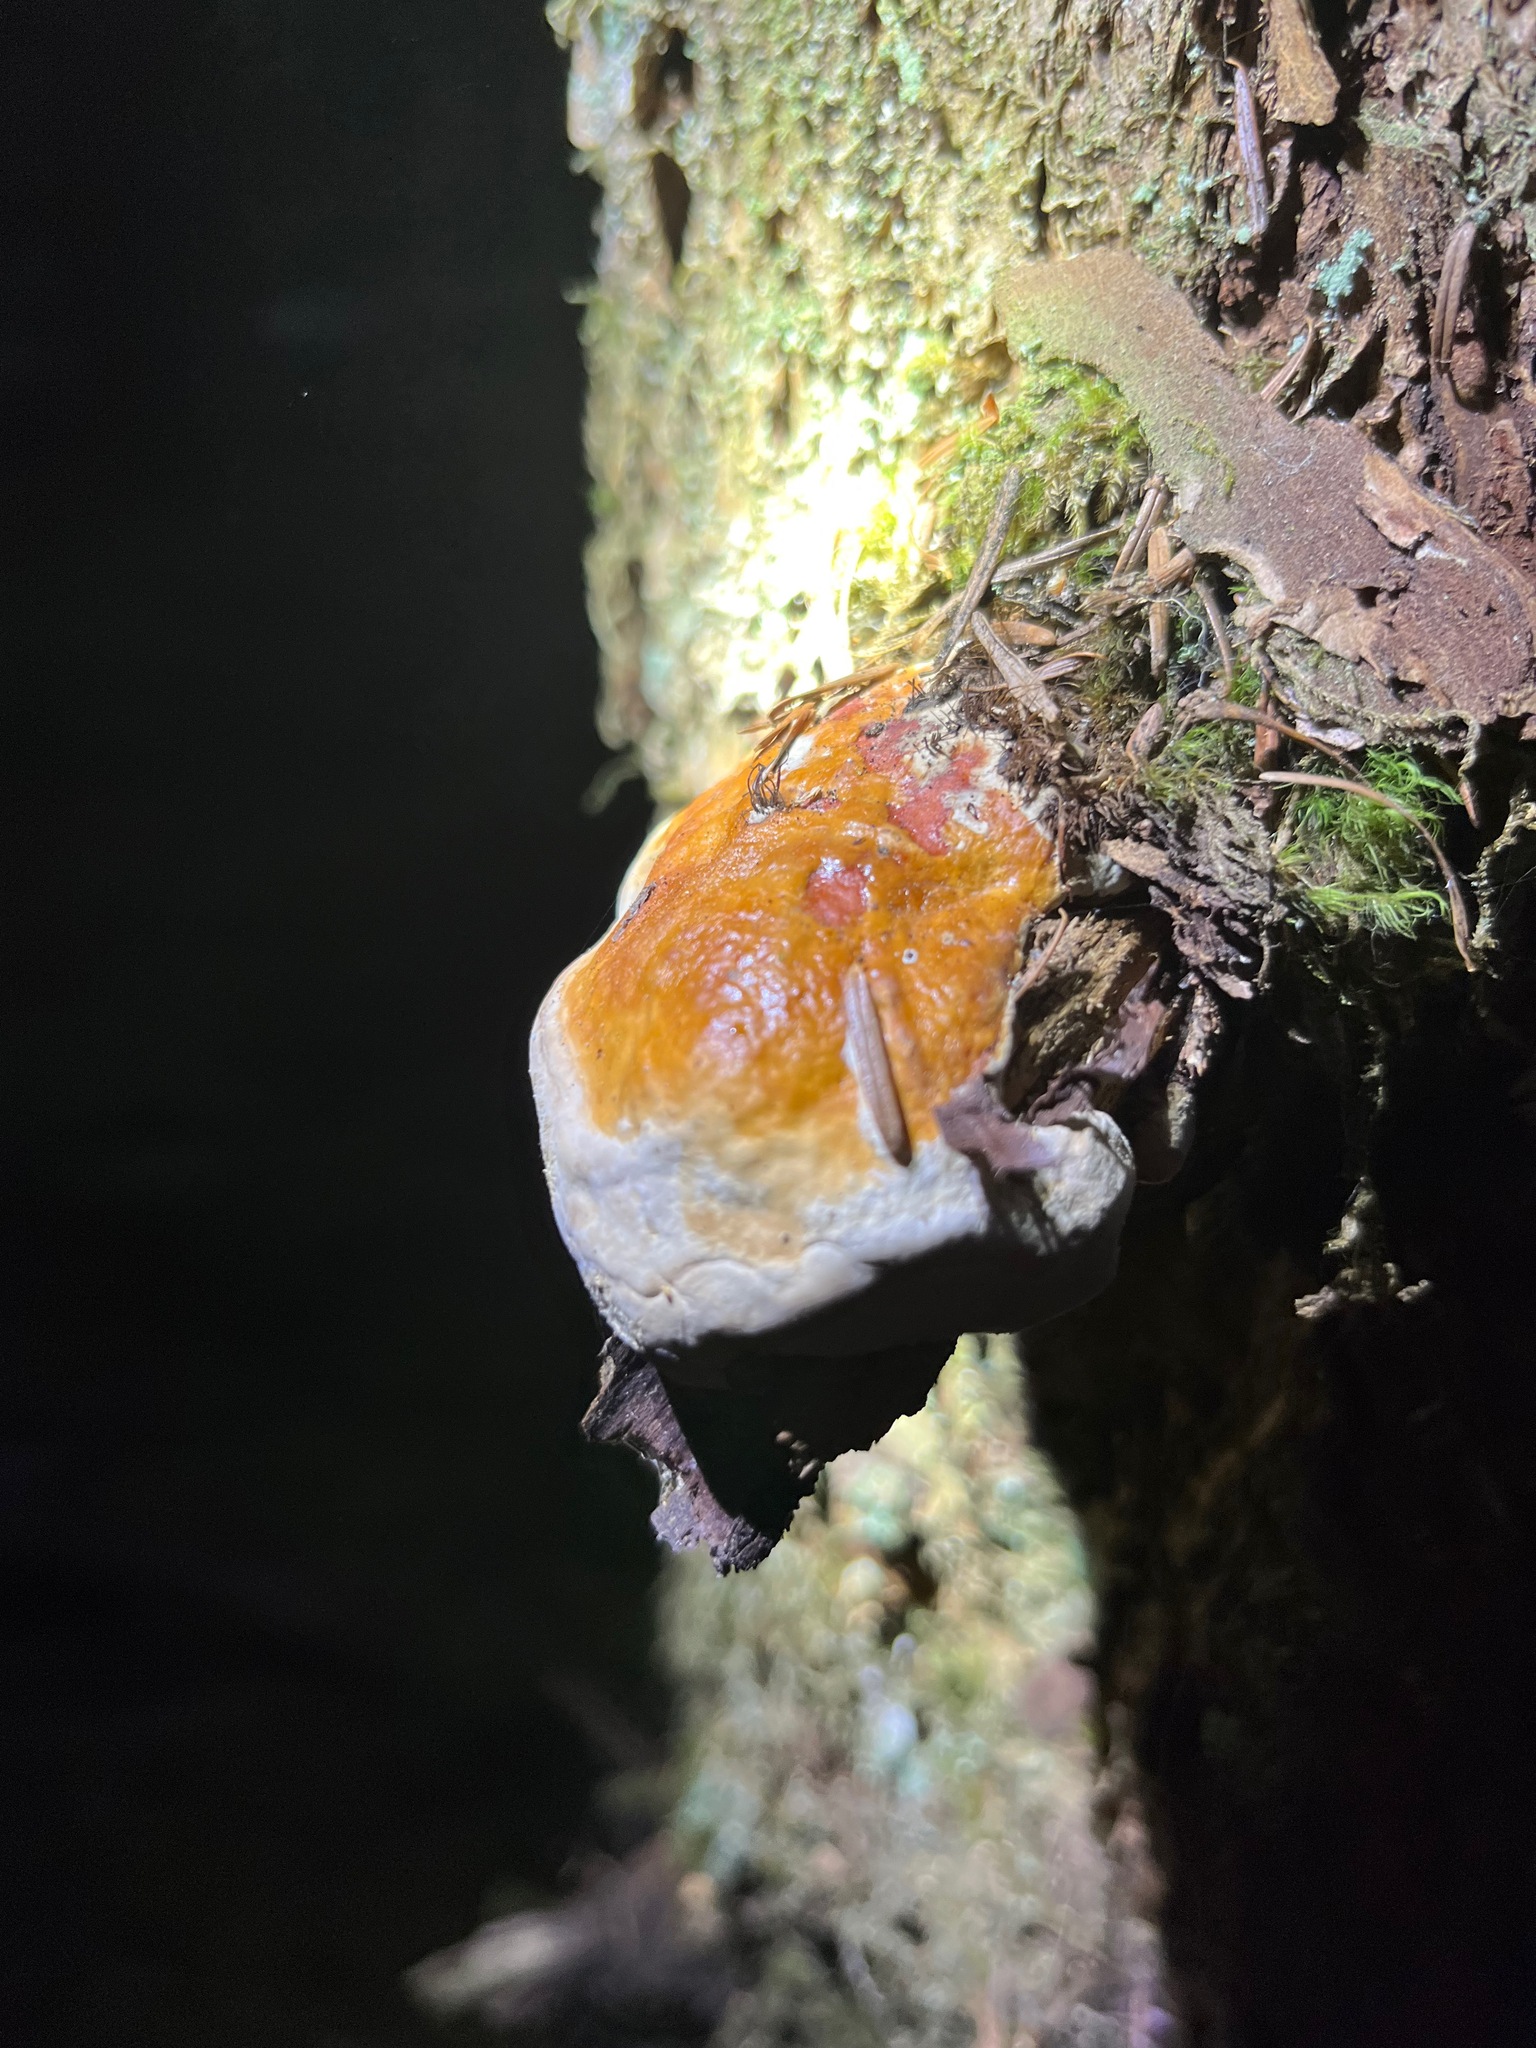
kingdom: Fungi
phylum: Basidiomycota
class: Agaricomycetes
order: Polyporales
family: Fomitopsidaceae
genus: Fomitopsis
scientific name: Fomitopsis mounceae
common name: Northern red belt
